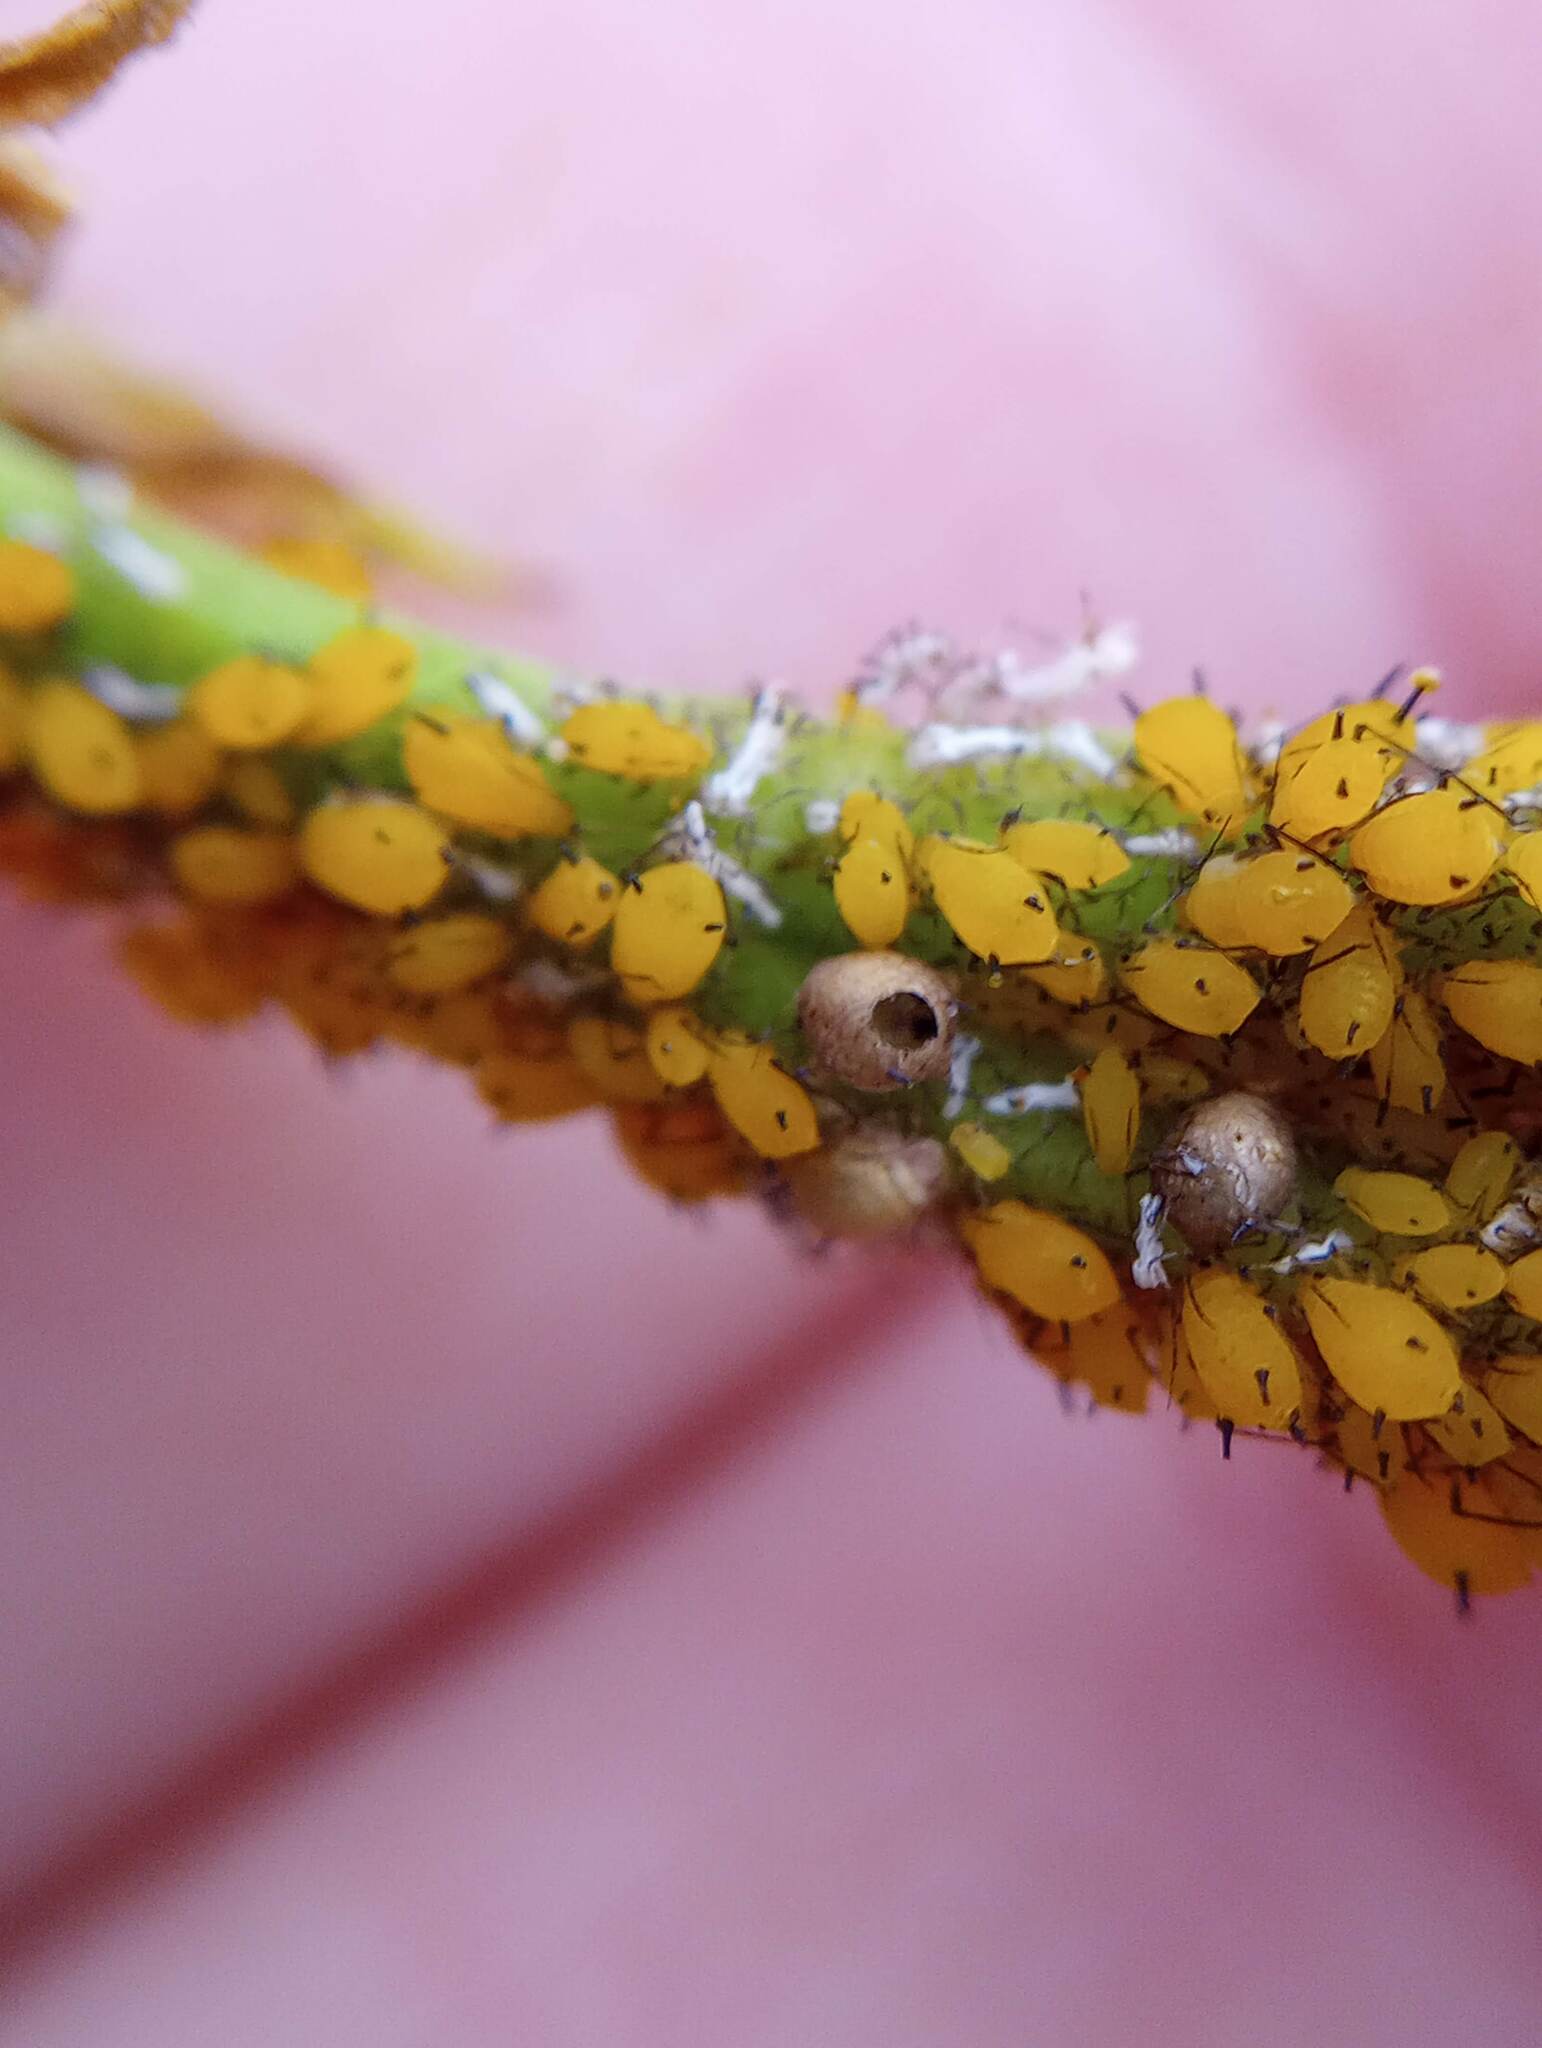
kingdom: Animalia
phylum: Arthropoda
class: Insecta
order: Hemiptera
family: Aphididae
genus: Aphis
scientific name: Aphis nerii
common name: Oleander aphid
